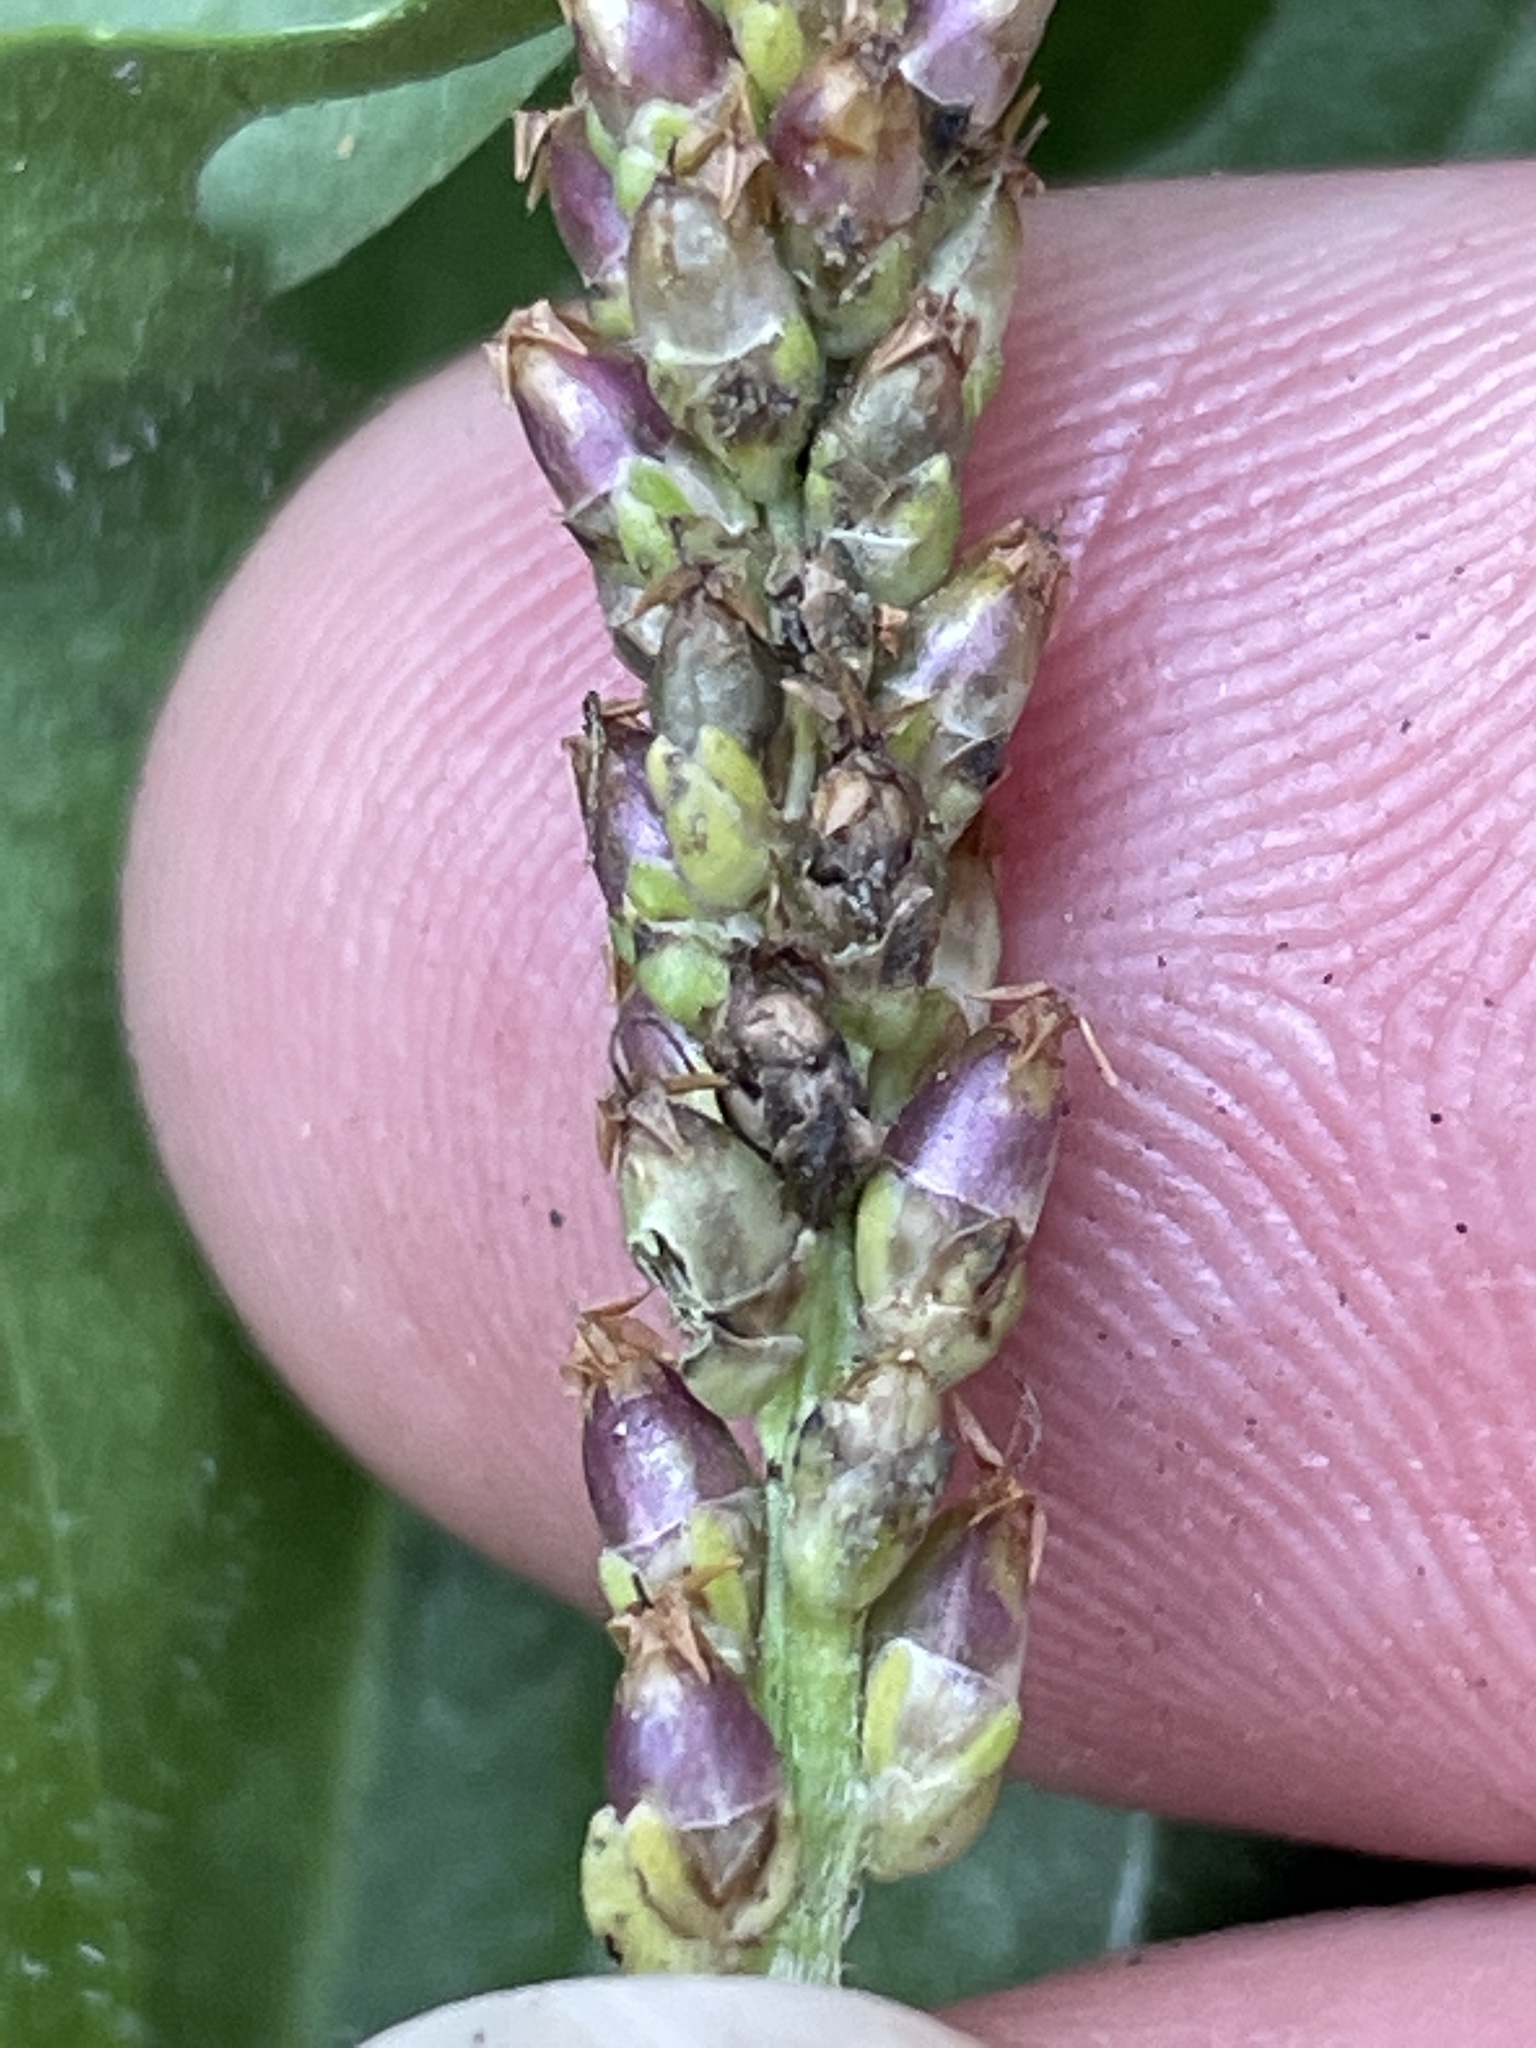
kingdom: Plantae
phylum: Tracheophyta
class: Magnoliopsida
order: Lamiales
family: Plantaginaceae
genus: Plantago
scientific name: Plantago major
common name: Common plantain
